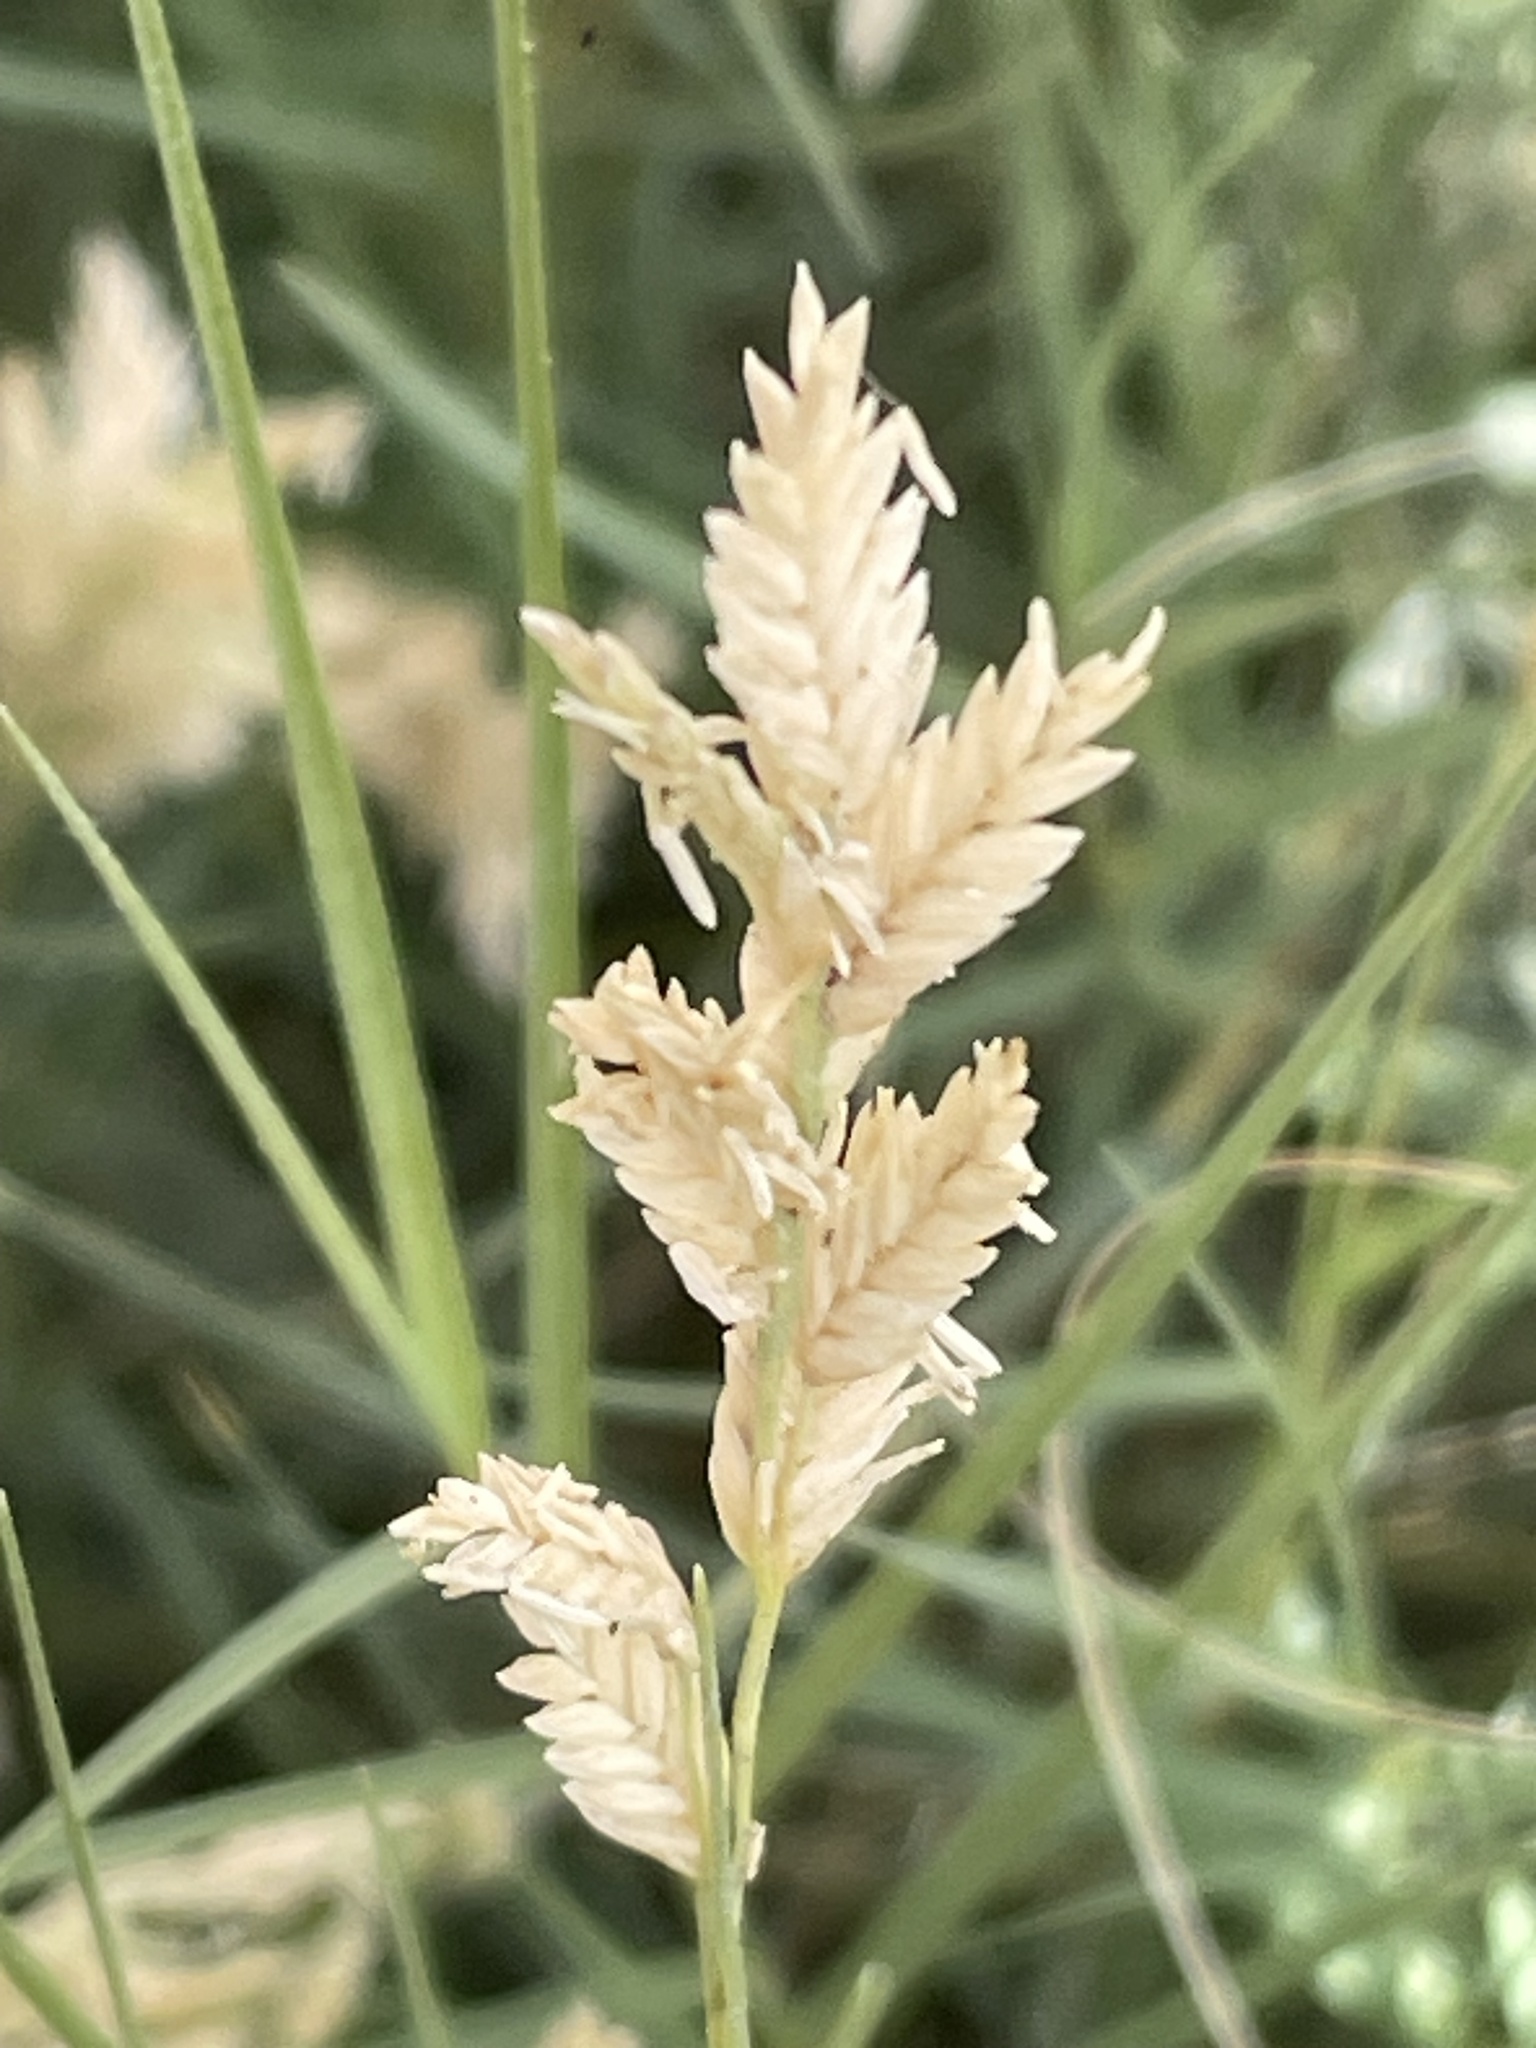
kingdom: Plantae
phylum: Tracheophyta
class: Liliopsida
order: Poales
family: Poaceae
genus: Distichlis
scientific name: Distichlis spicata
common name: Saltgrass
